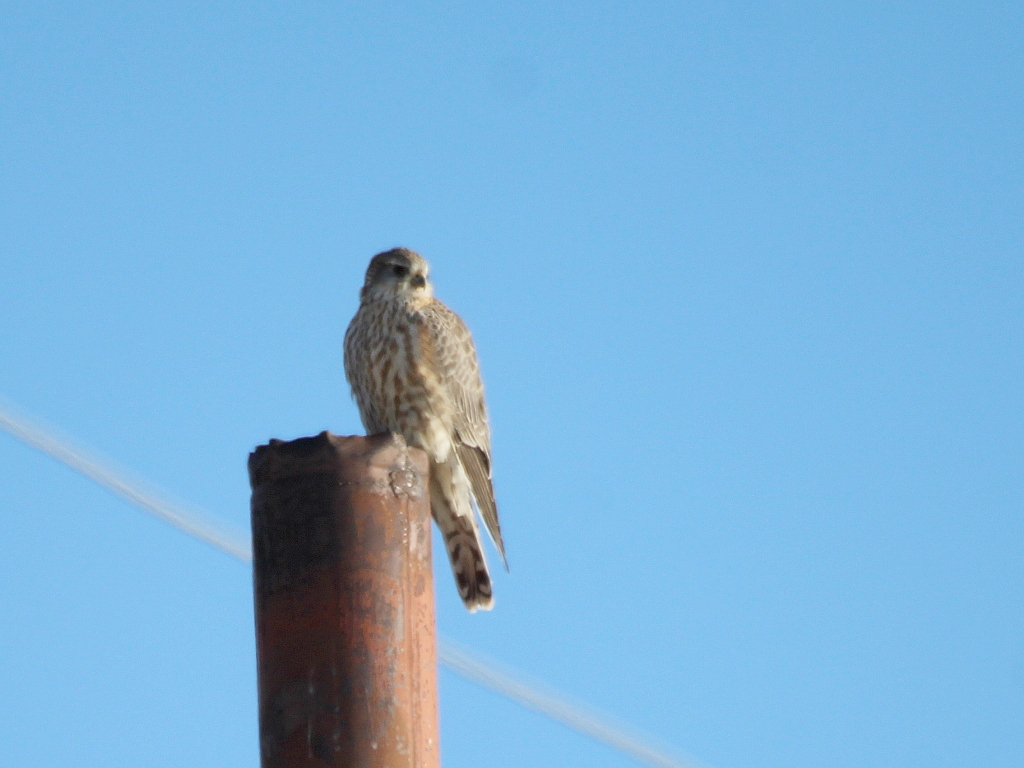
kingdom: Animalia
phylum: Chordata
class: Aves
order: Falconiformes
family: Falconidae
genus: Falco
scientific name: Falco columbarius
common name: Merlin
